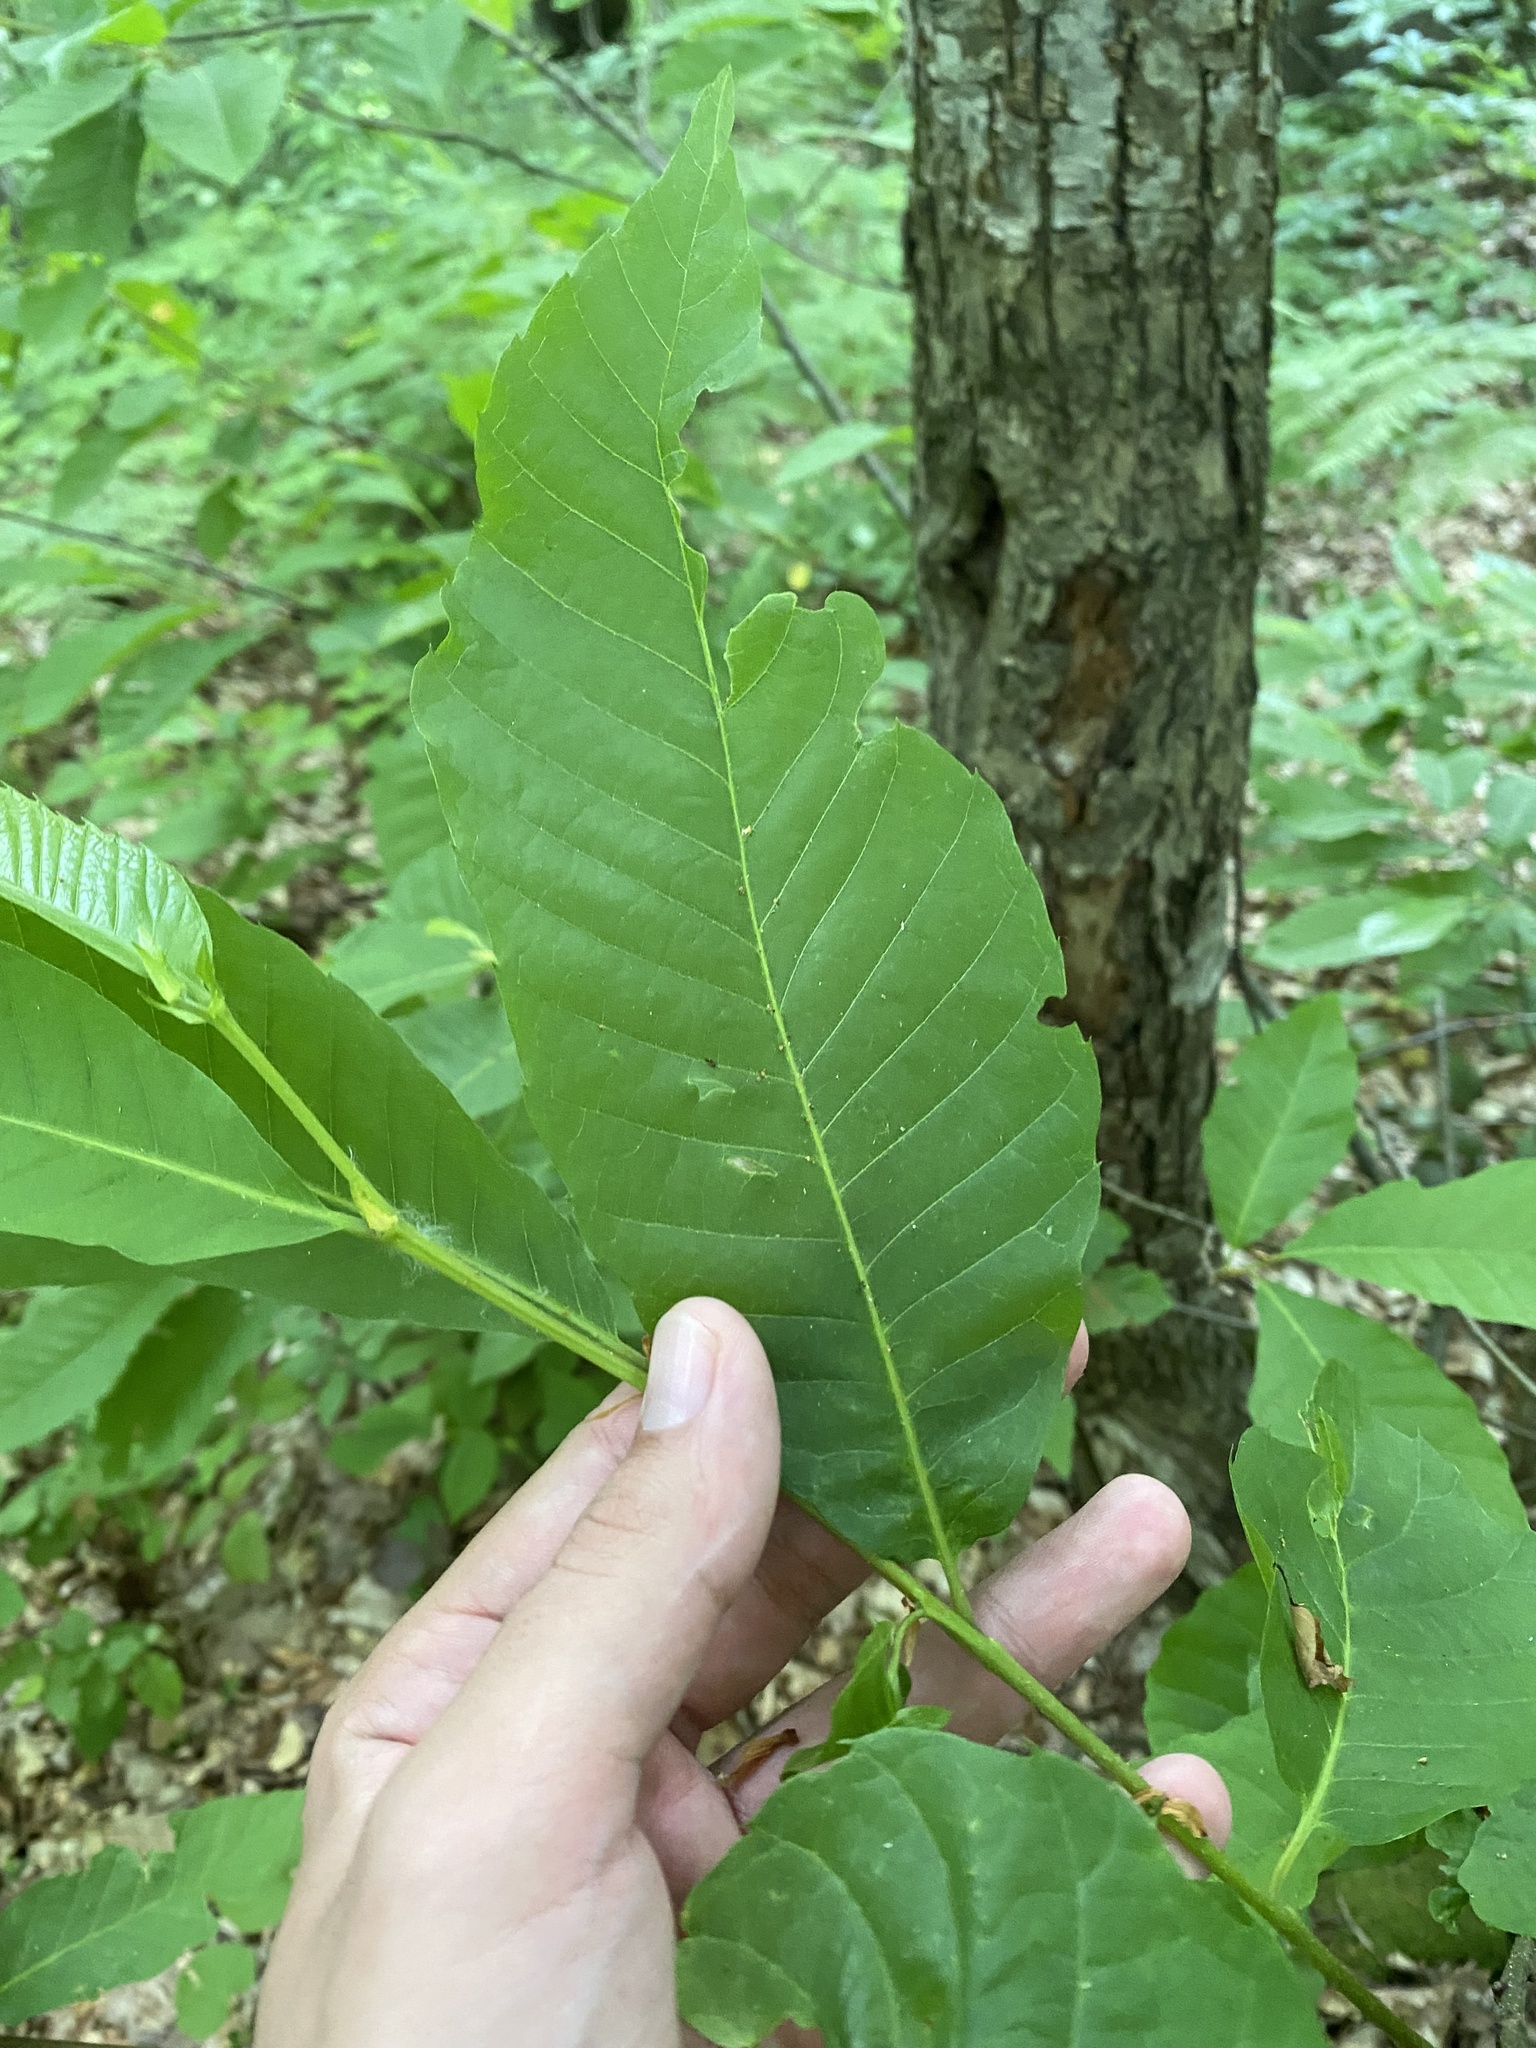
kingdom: Plantae
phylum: Tracheophyta
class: Magnoliopsida
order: Fagales
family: Fagaceae
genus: Castanea
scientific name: Castanea sativa
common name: Sweet chestnut
